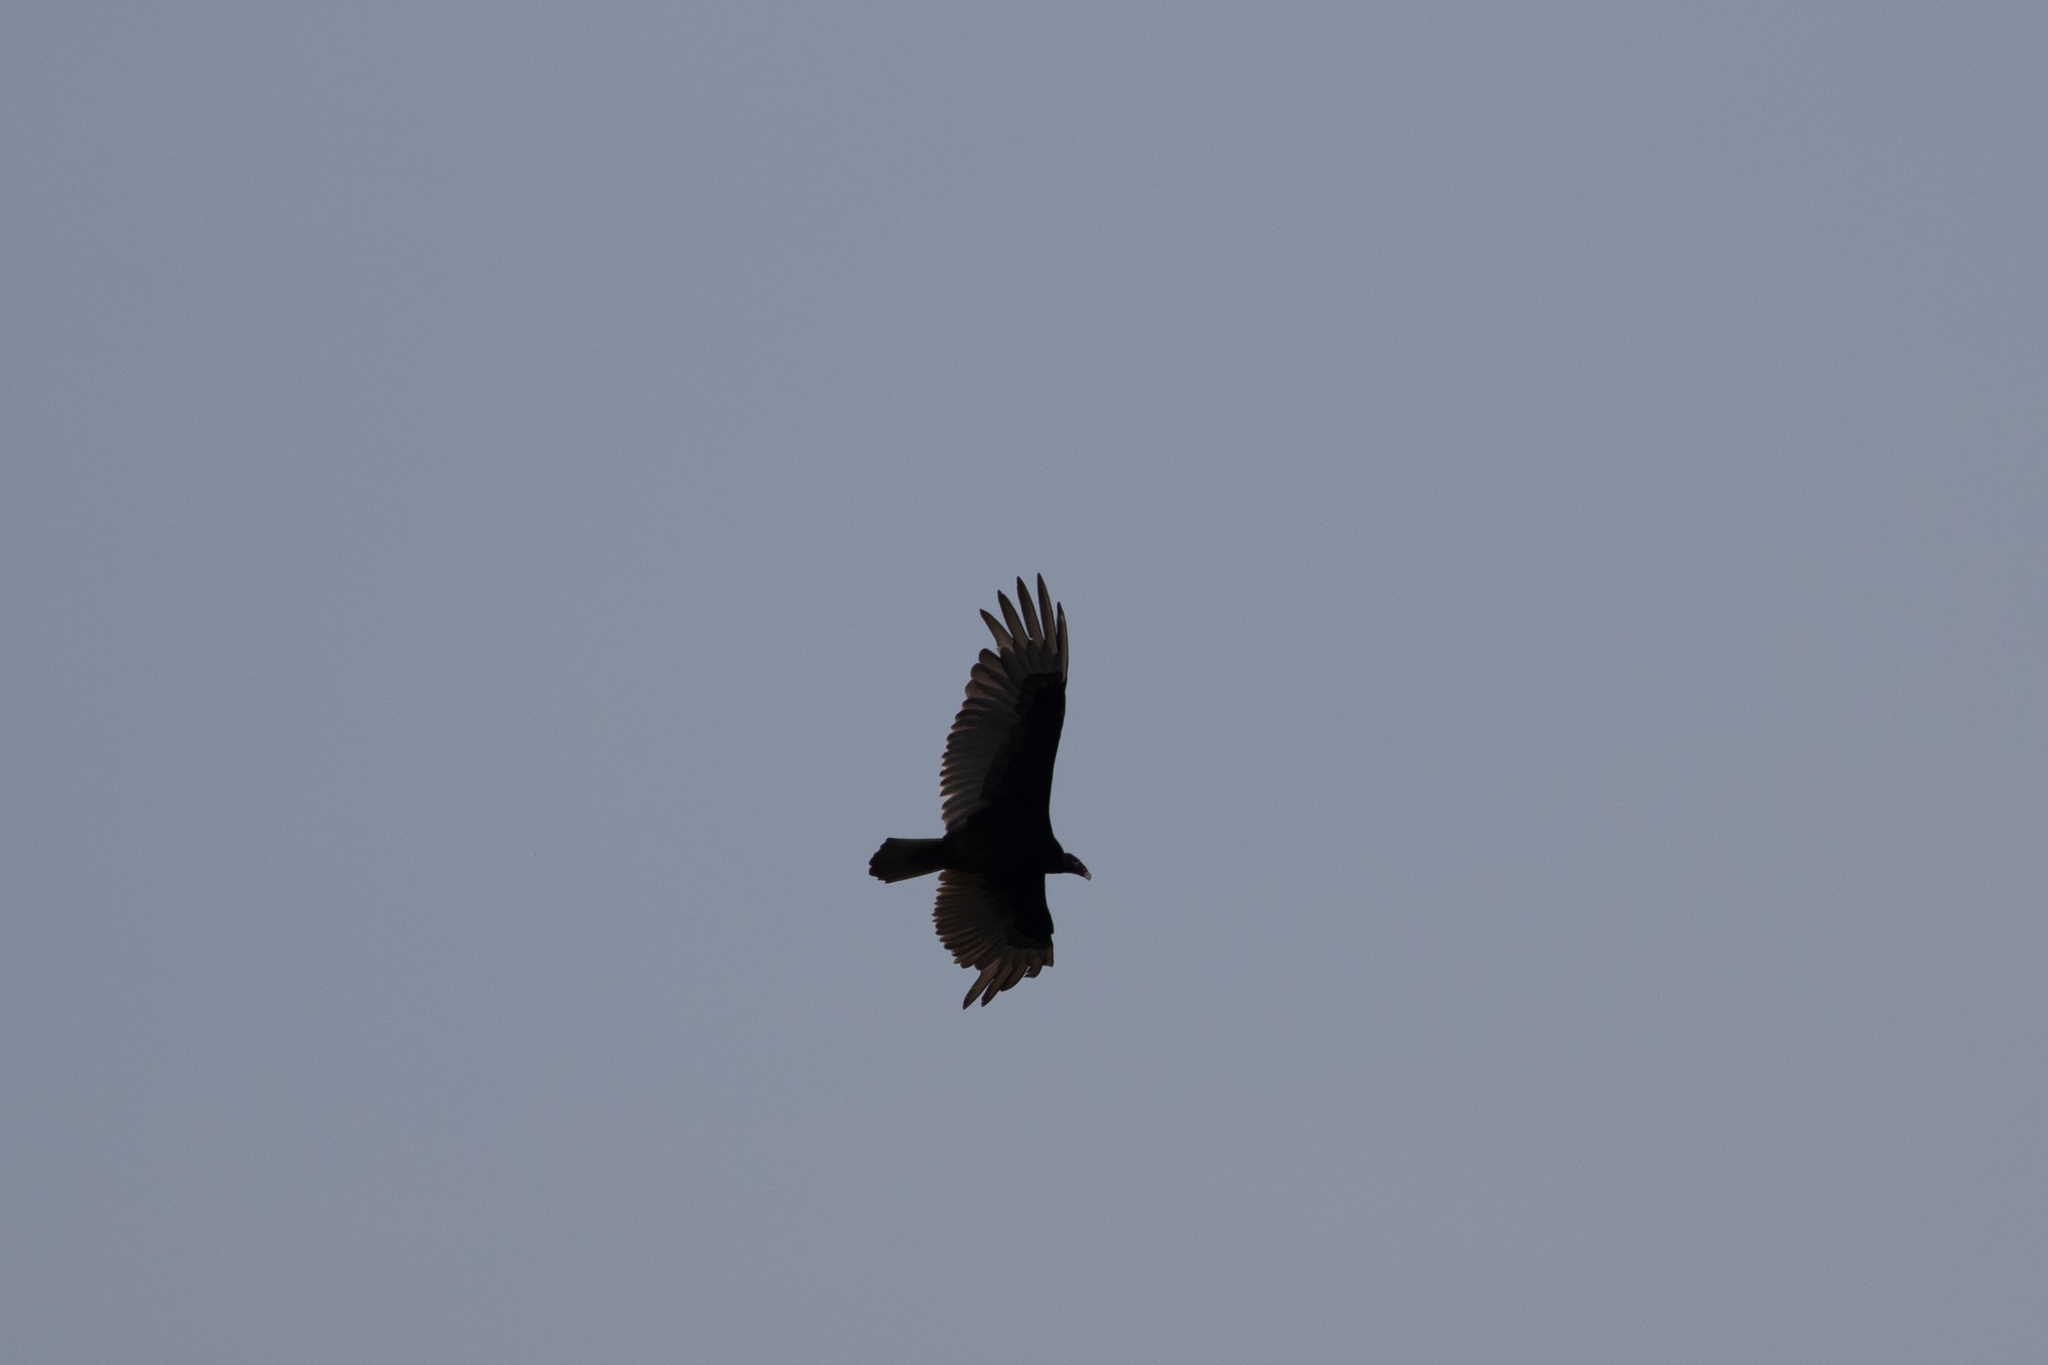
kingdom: Animalia
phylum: Chordata
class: Aves
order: Accipitriformes
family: Cathartidae
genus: Cathartes
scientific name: Cathartes aura
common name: Turkey vulture
